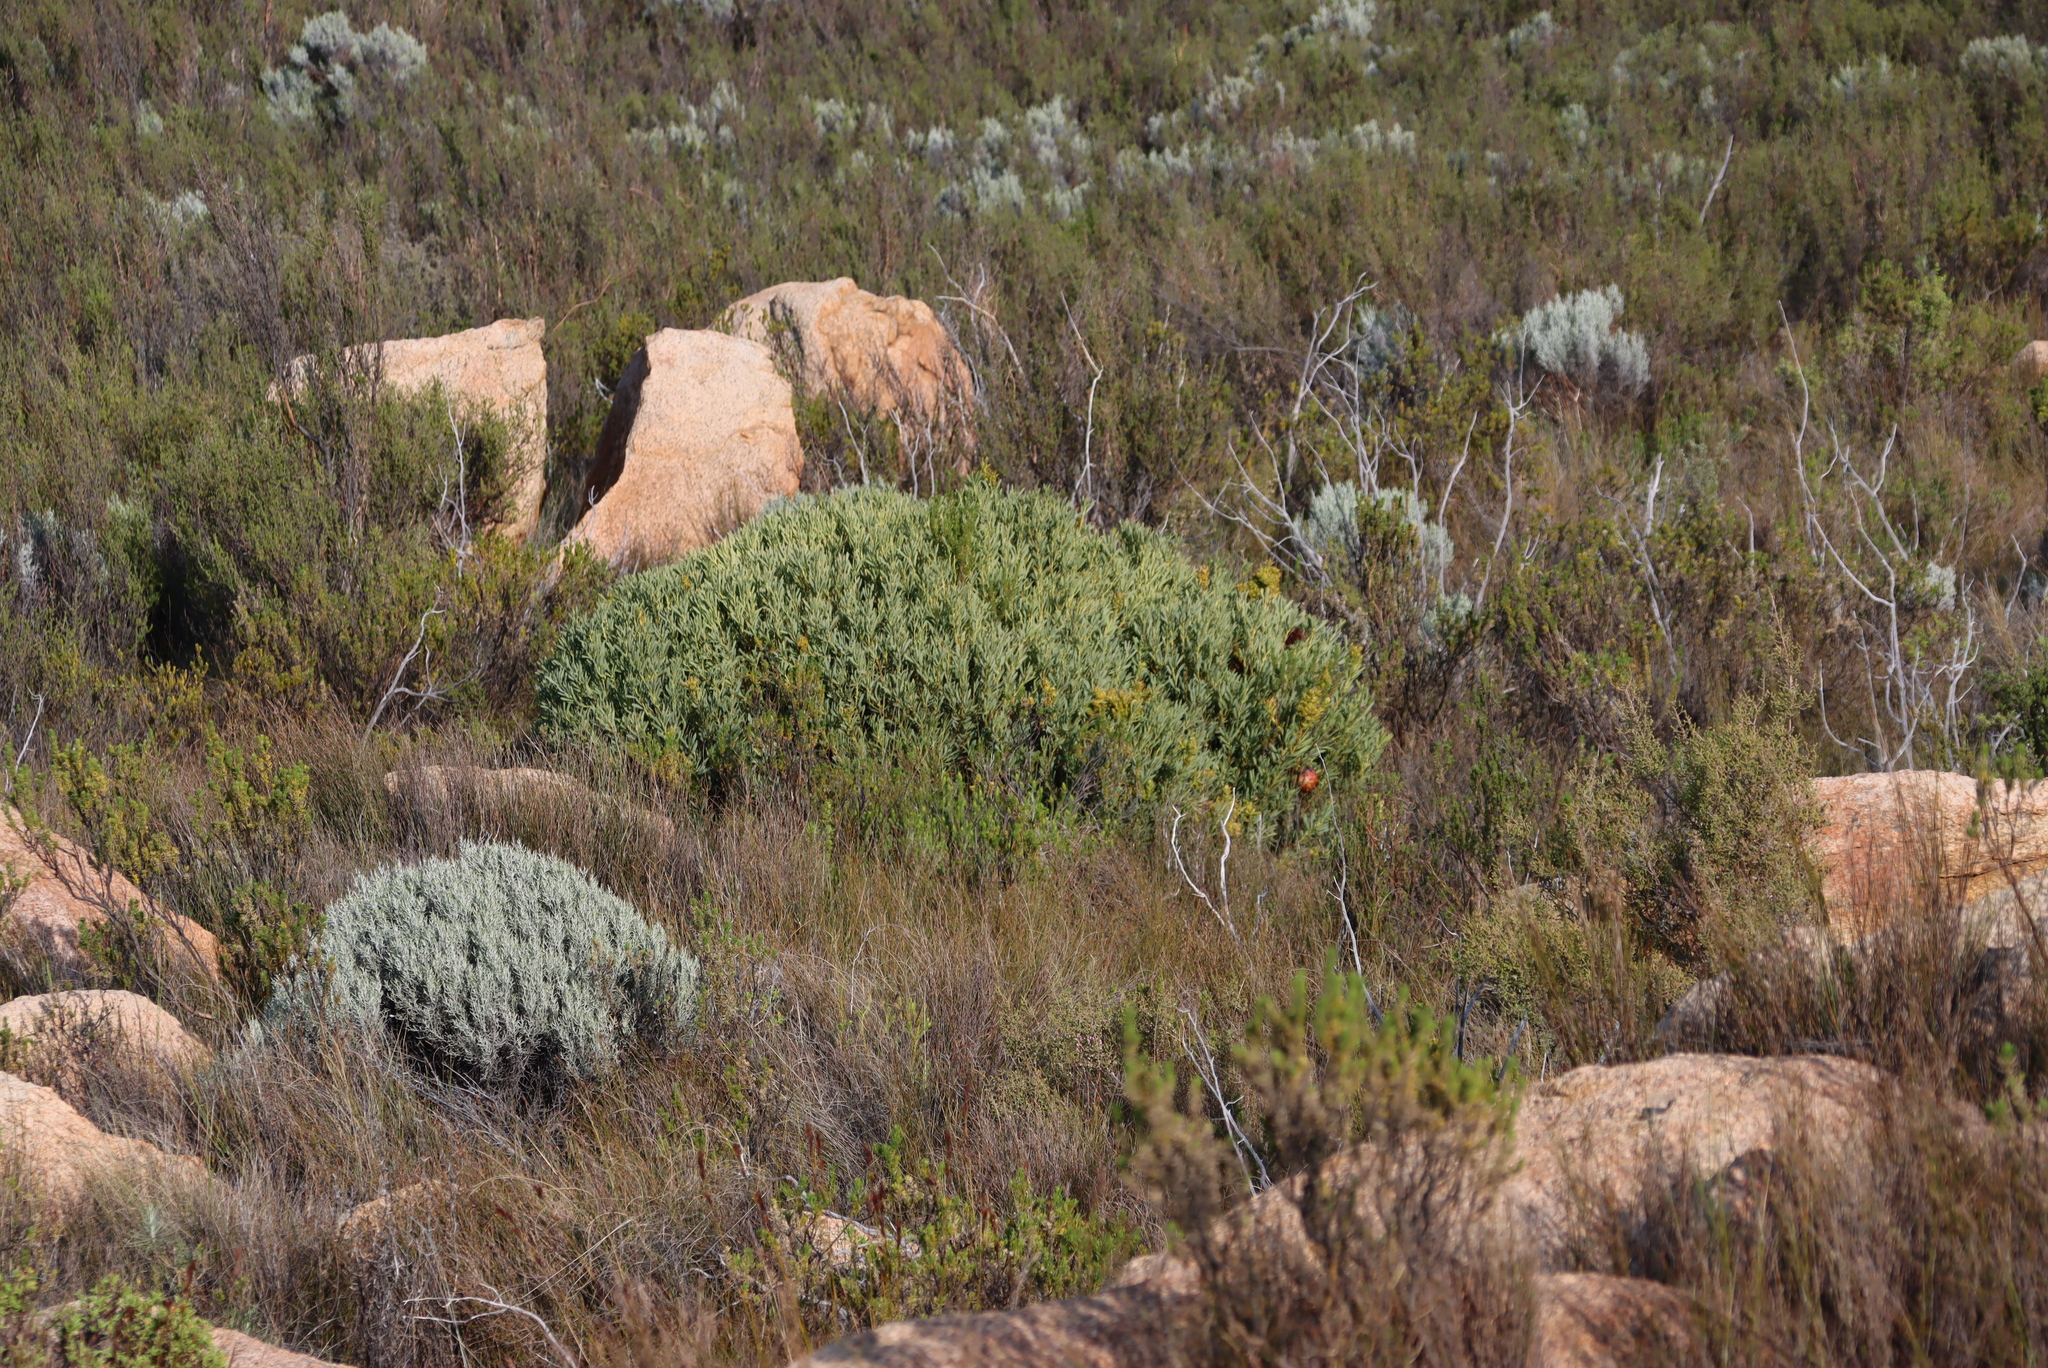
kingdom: Plantae
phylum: Tracheophyta
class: Magnoliopsida
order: Proteales
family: Proteaceae
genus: Protea
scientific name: Protea namaquana
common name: Kamiesberg sugarbush
